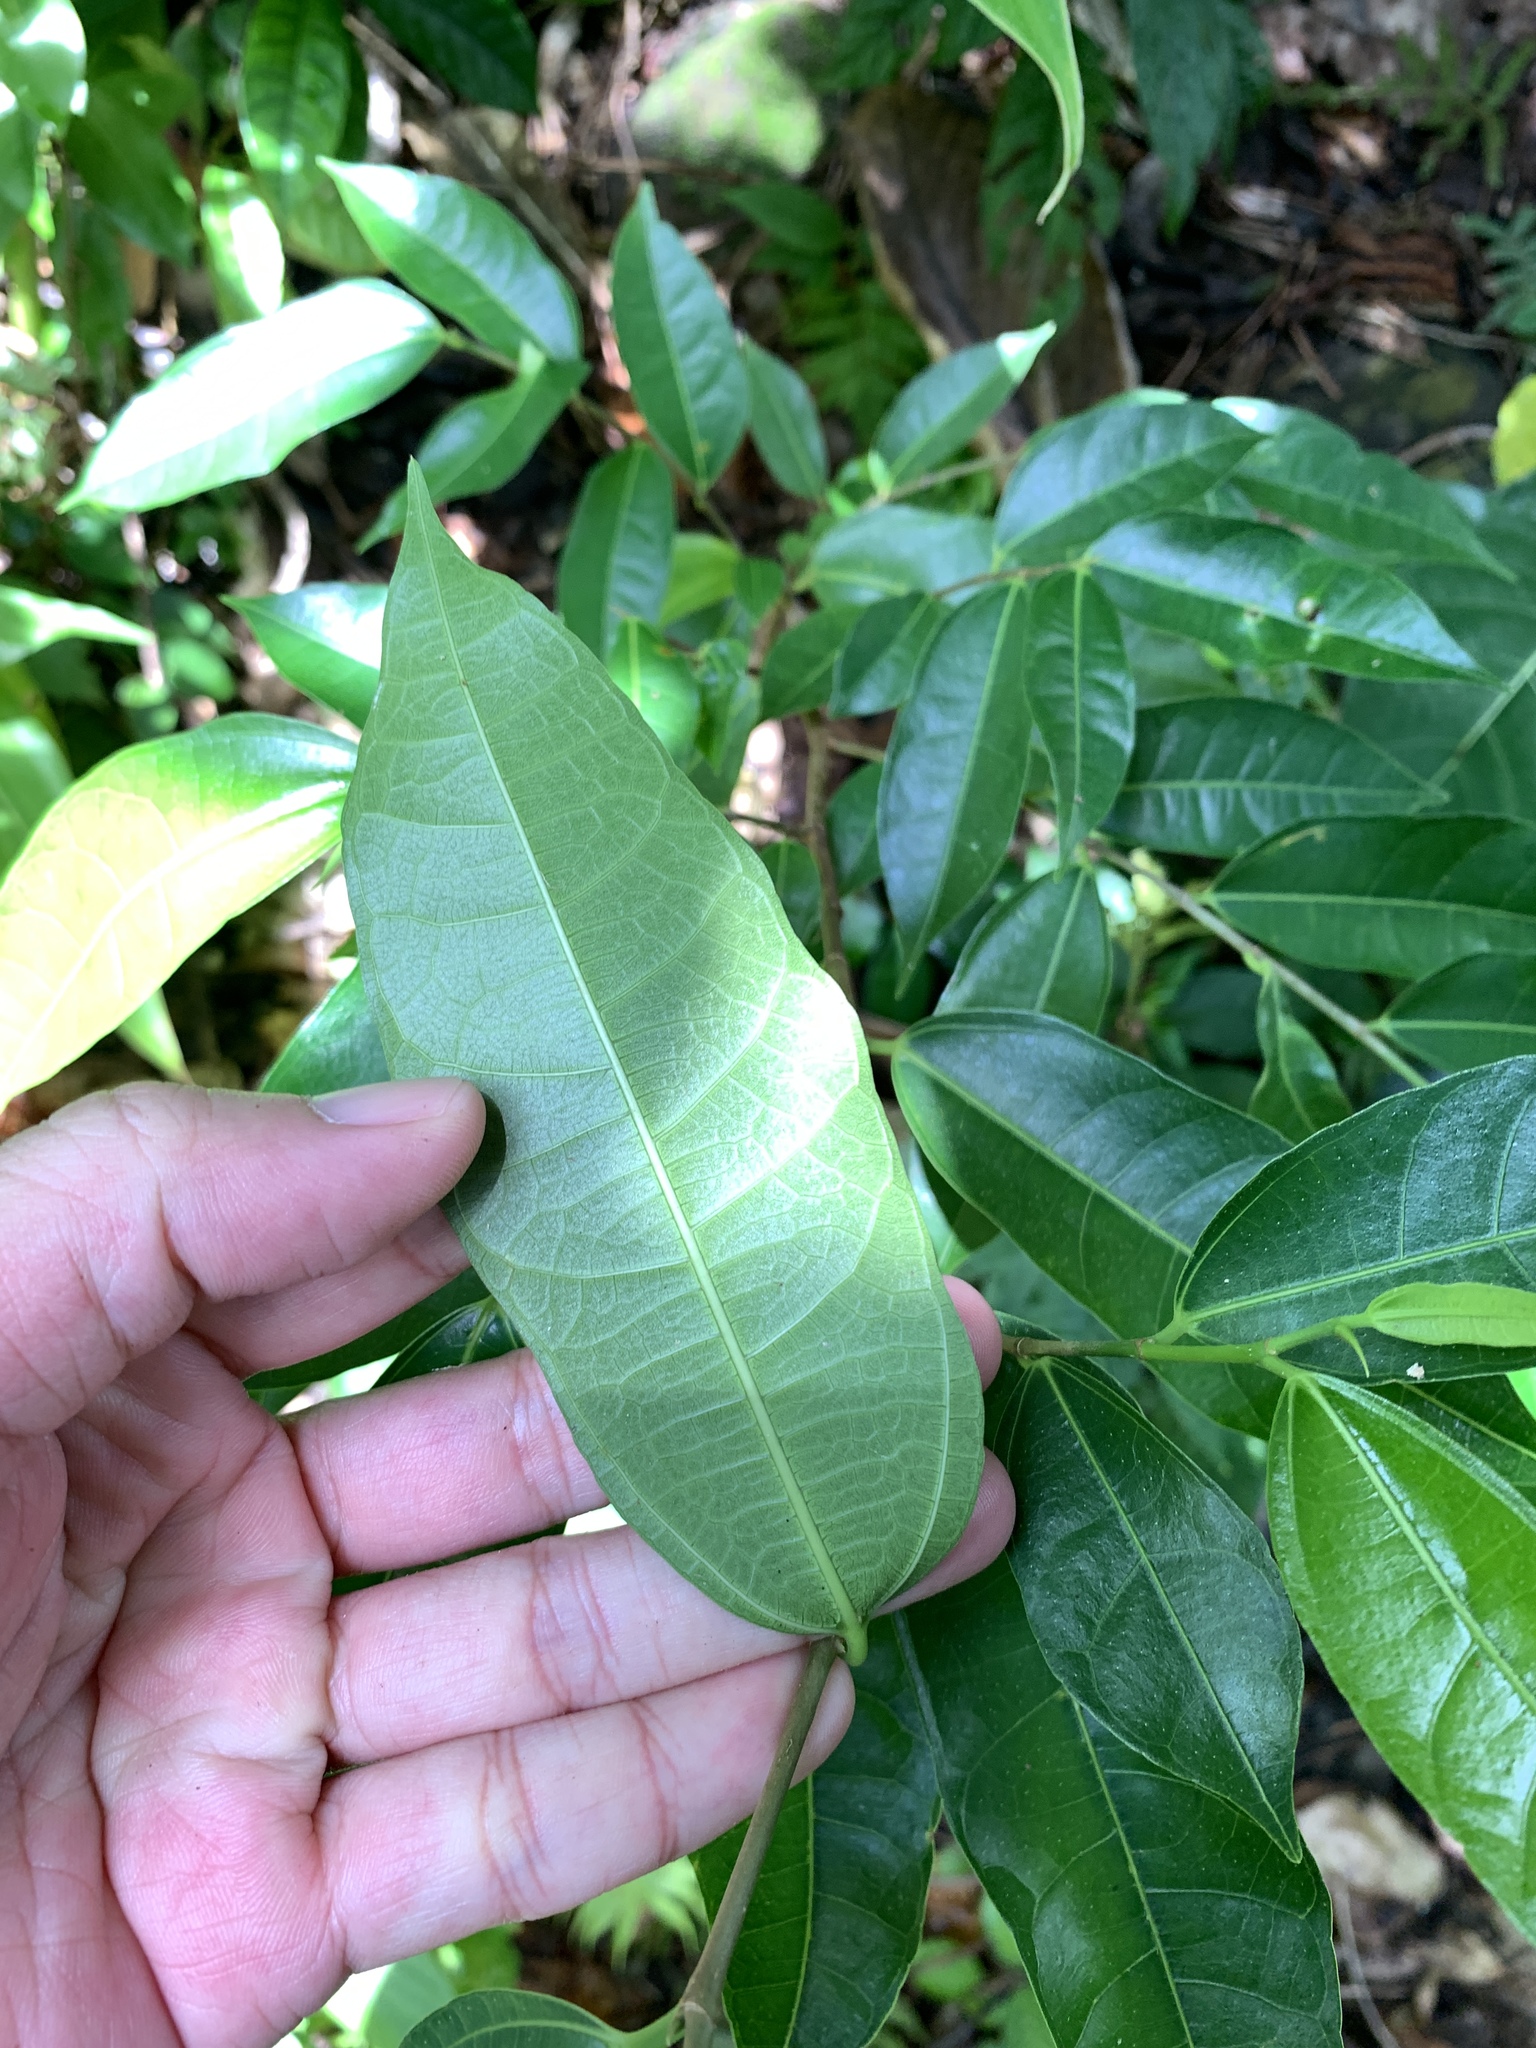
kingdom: Plantae
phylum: Tracheophyta
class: Magnoliopsida
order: Rosales
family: Moraceae
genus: Ficus
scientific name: Ficus ampelos
